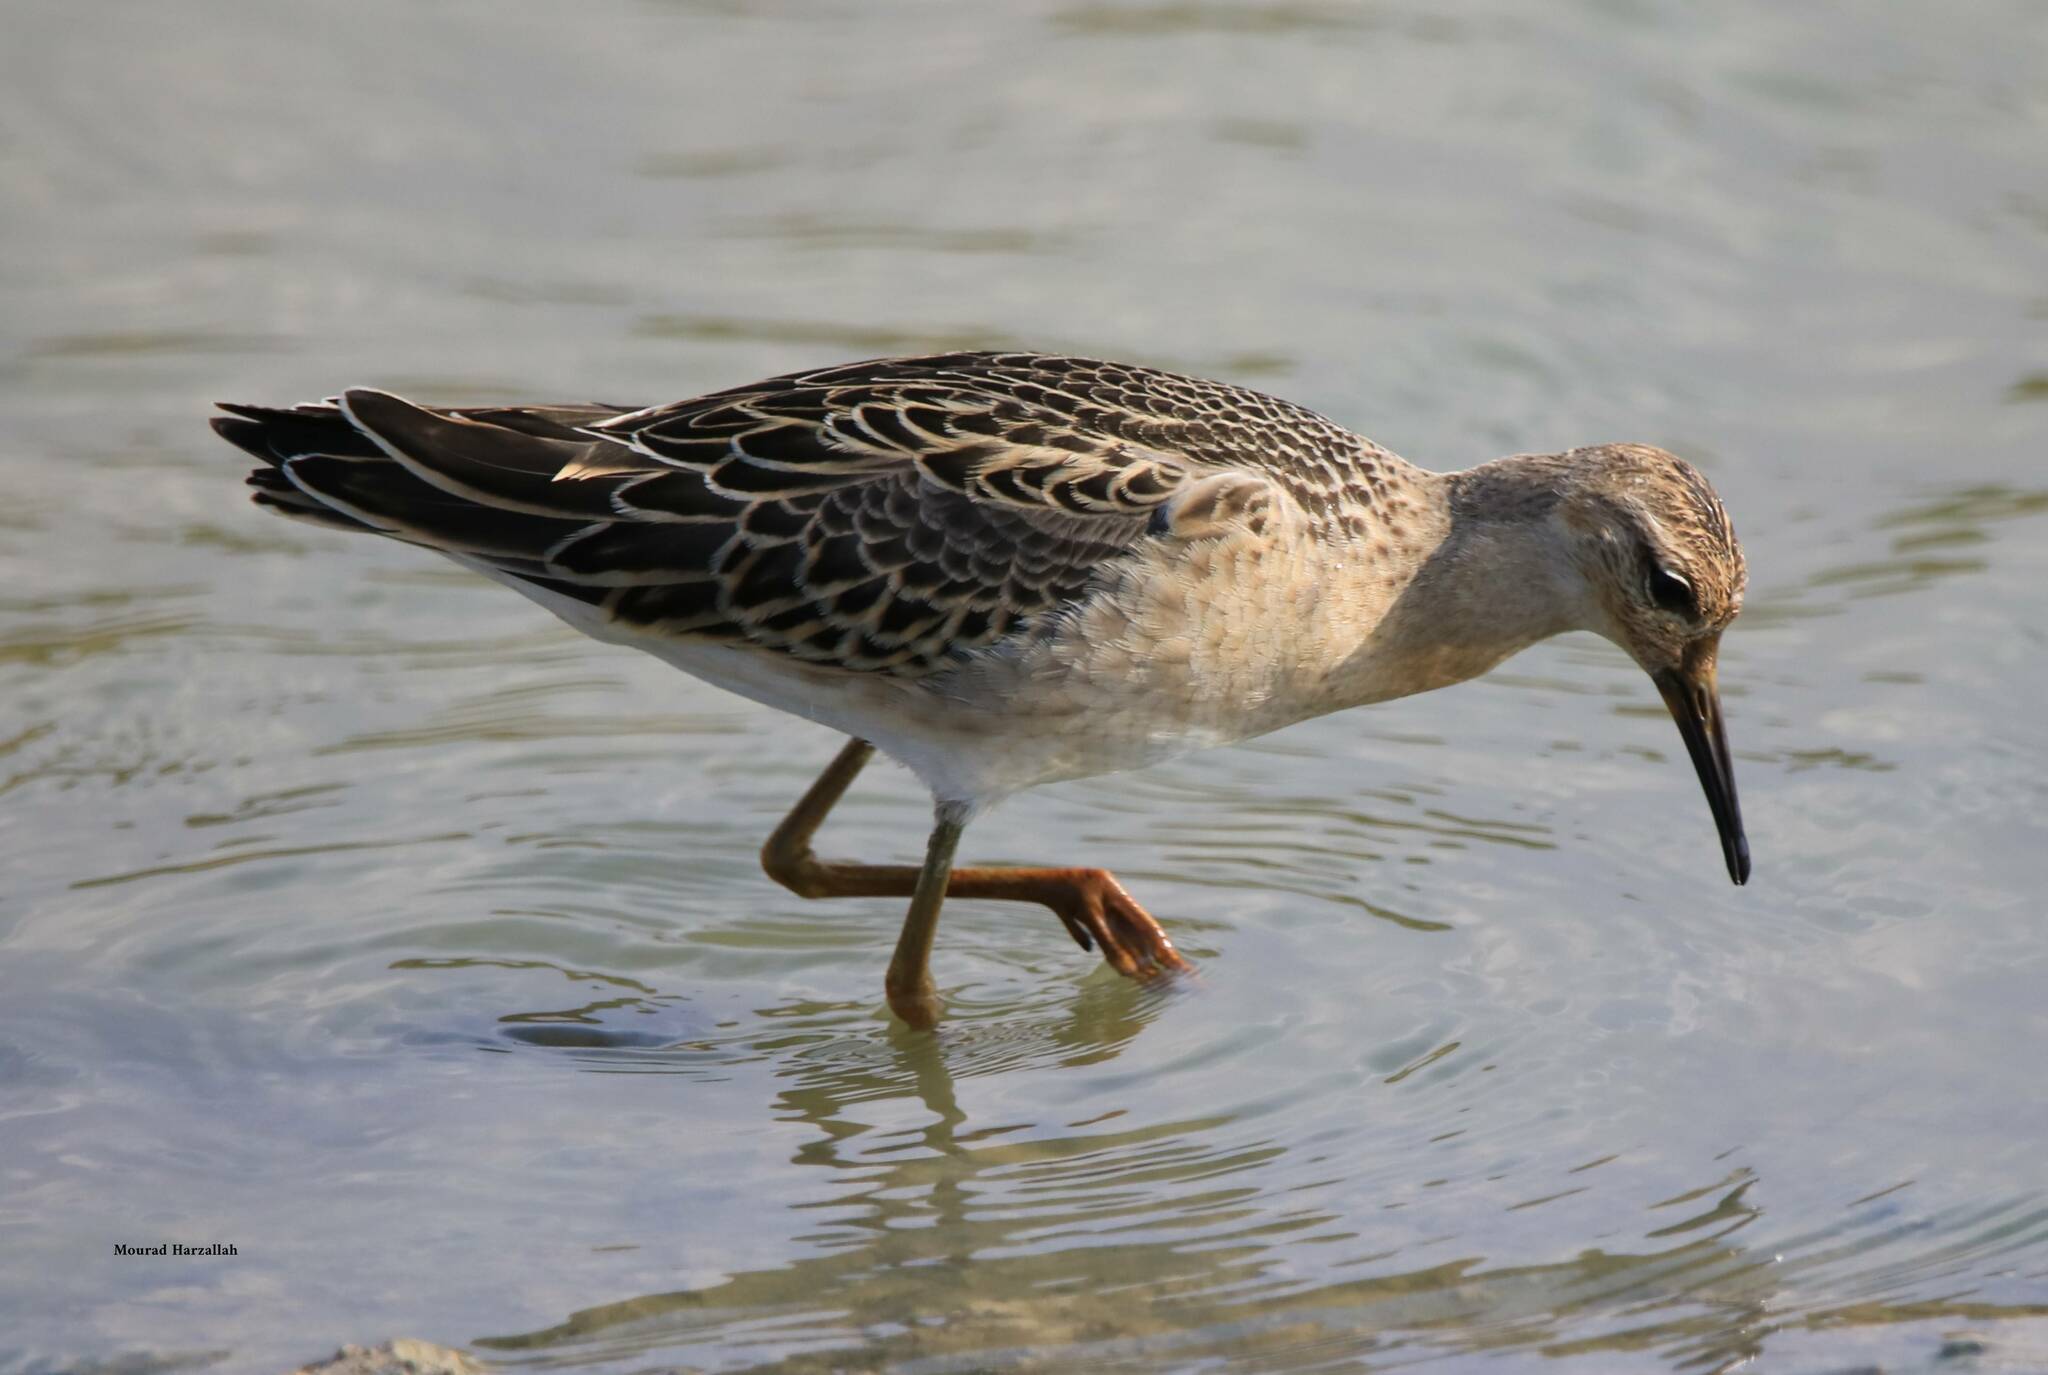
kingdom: Animalia
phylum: Chordata
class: Aves
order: Charadriiformes
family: Scolopacidae
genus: Calidris
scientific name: Calidris pugnax
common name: Ruff
